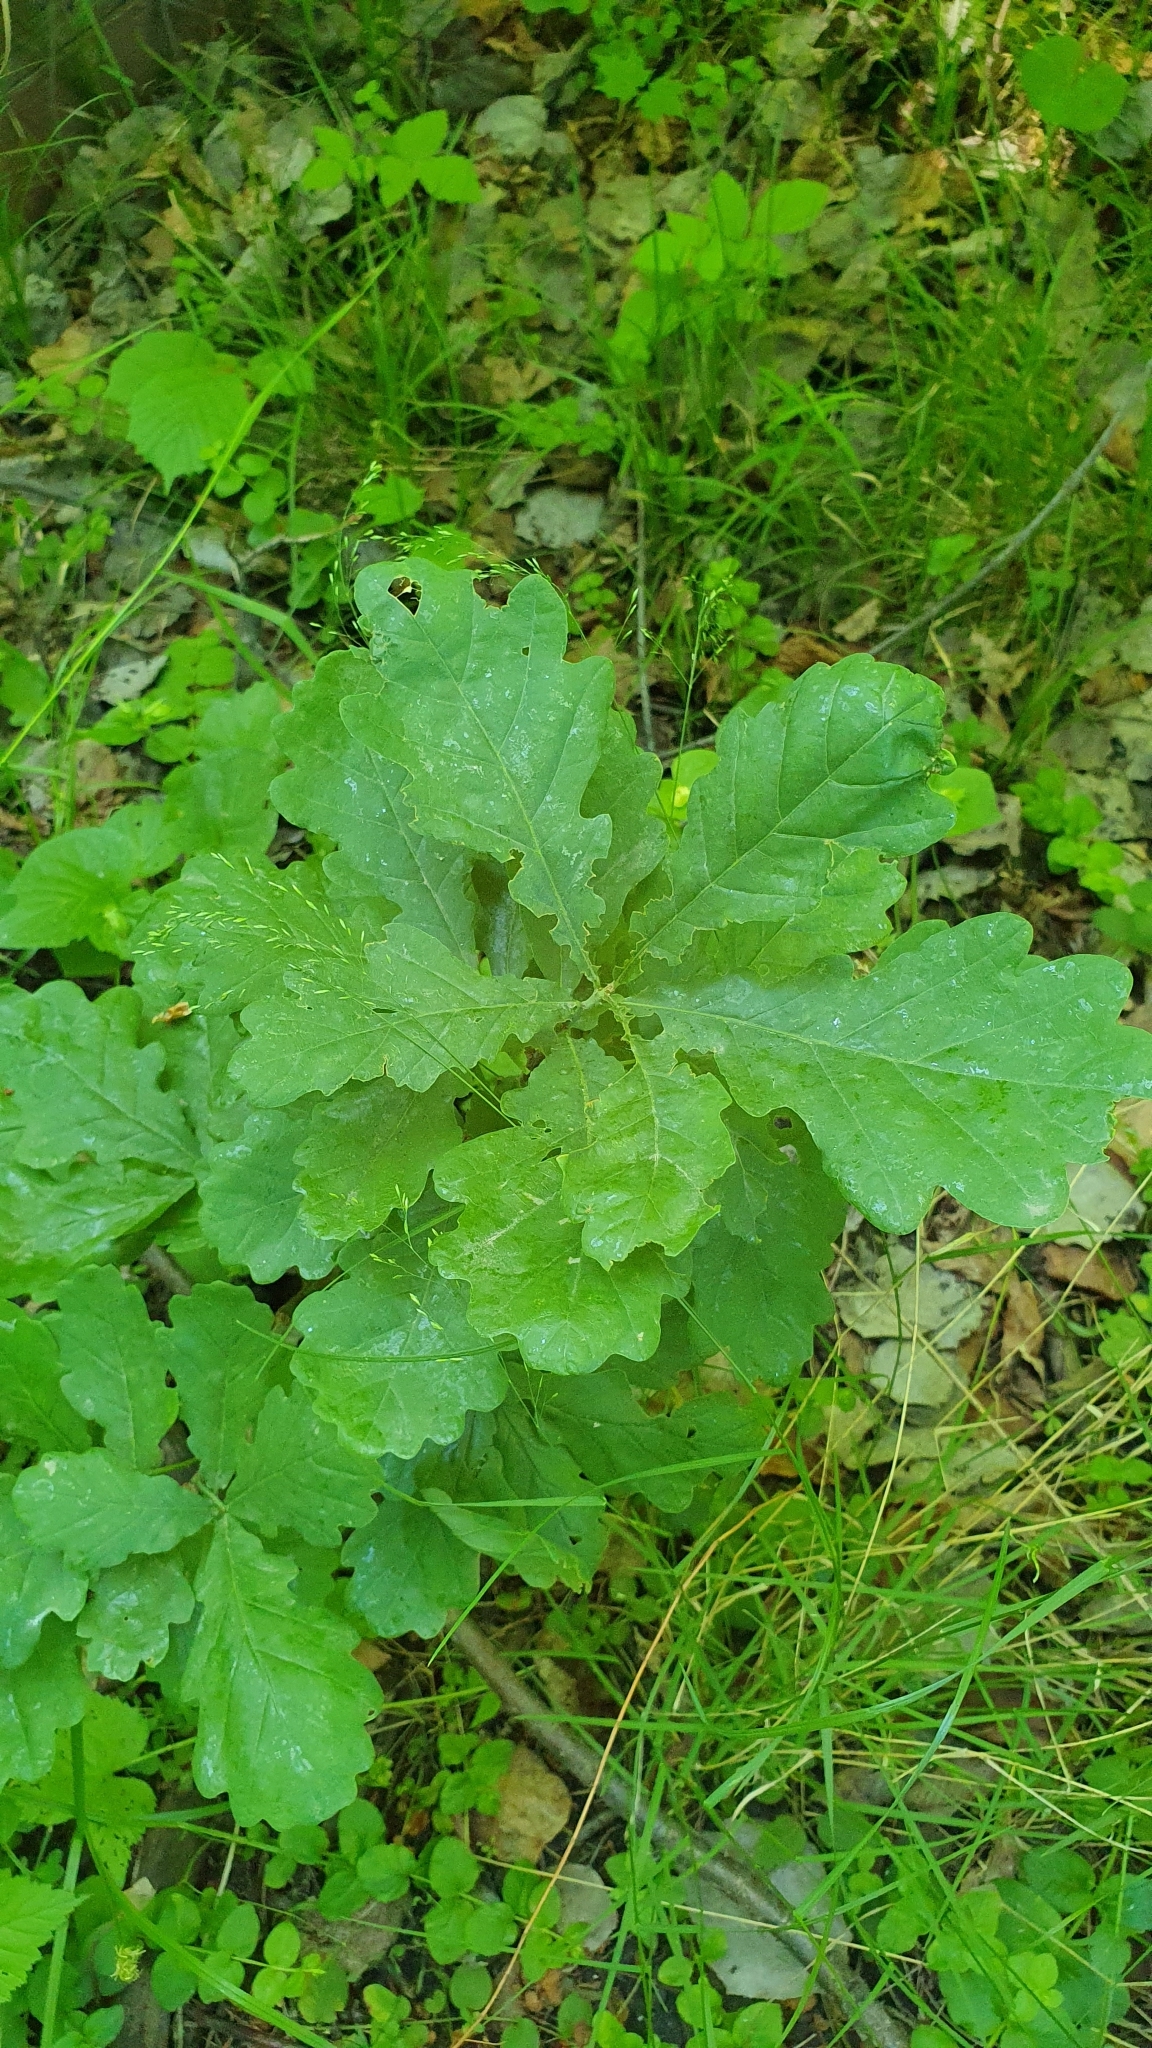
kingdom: Plantae
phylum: Tracheophyta
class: Magnoliopsida
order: Fagales
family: Fagaceae
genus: Quercus
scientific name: Quercus robur
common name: Pedunculate oak
